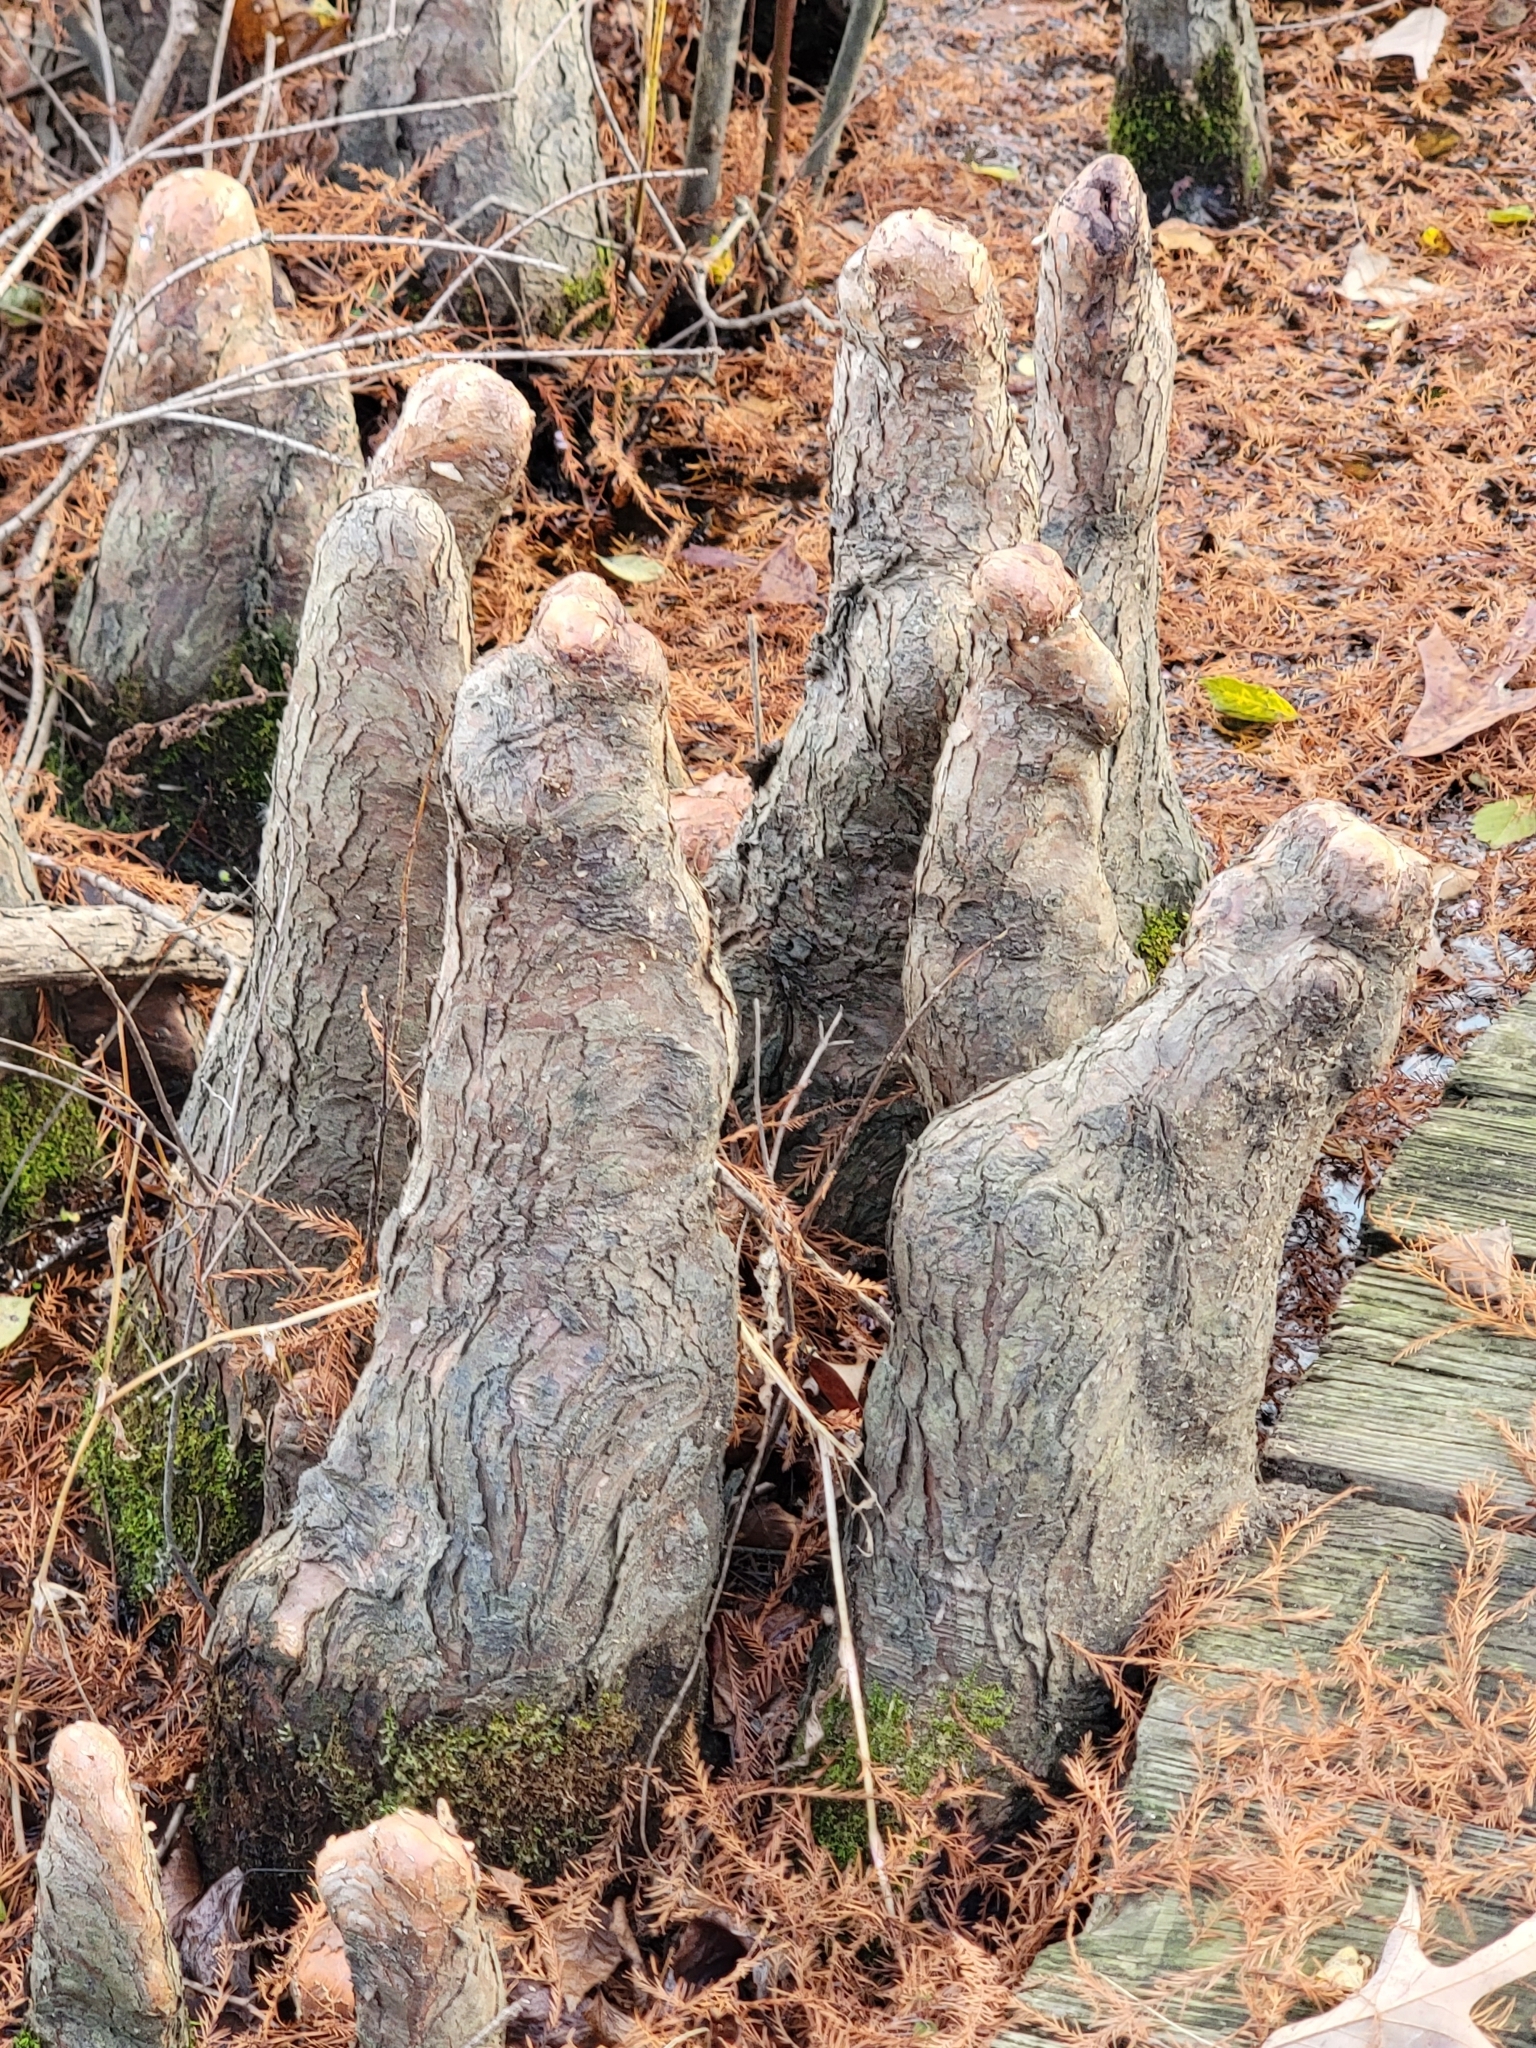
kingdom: Plantae
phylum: Tracheophyta
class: Pinopsida
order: Pinales
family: Cupressaceae
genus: Taxodium
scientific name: Taxodium distichum
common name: Bald cypress
